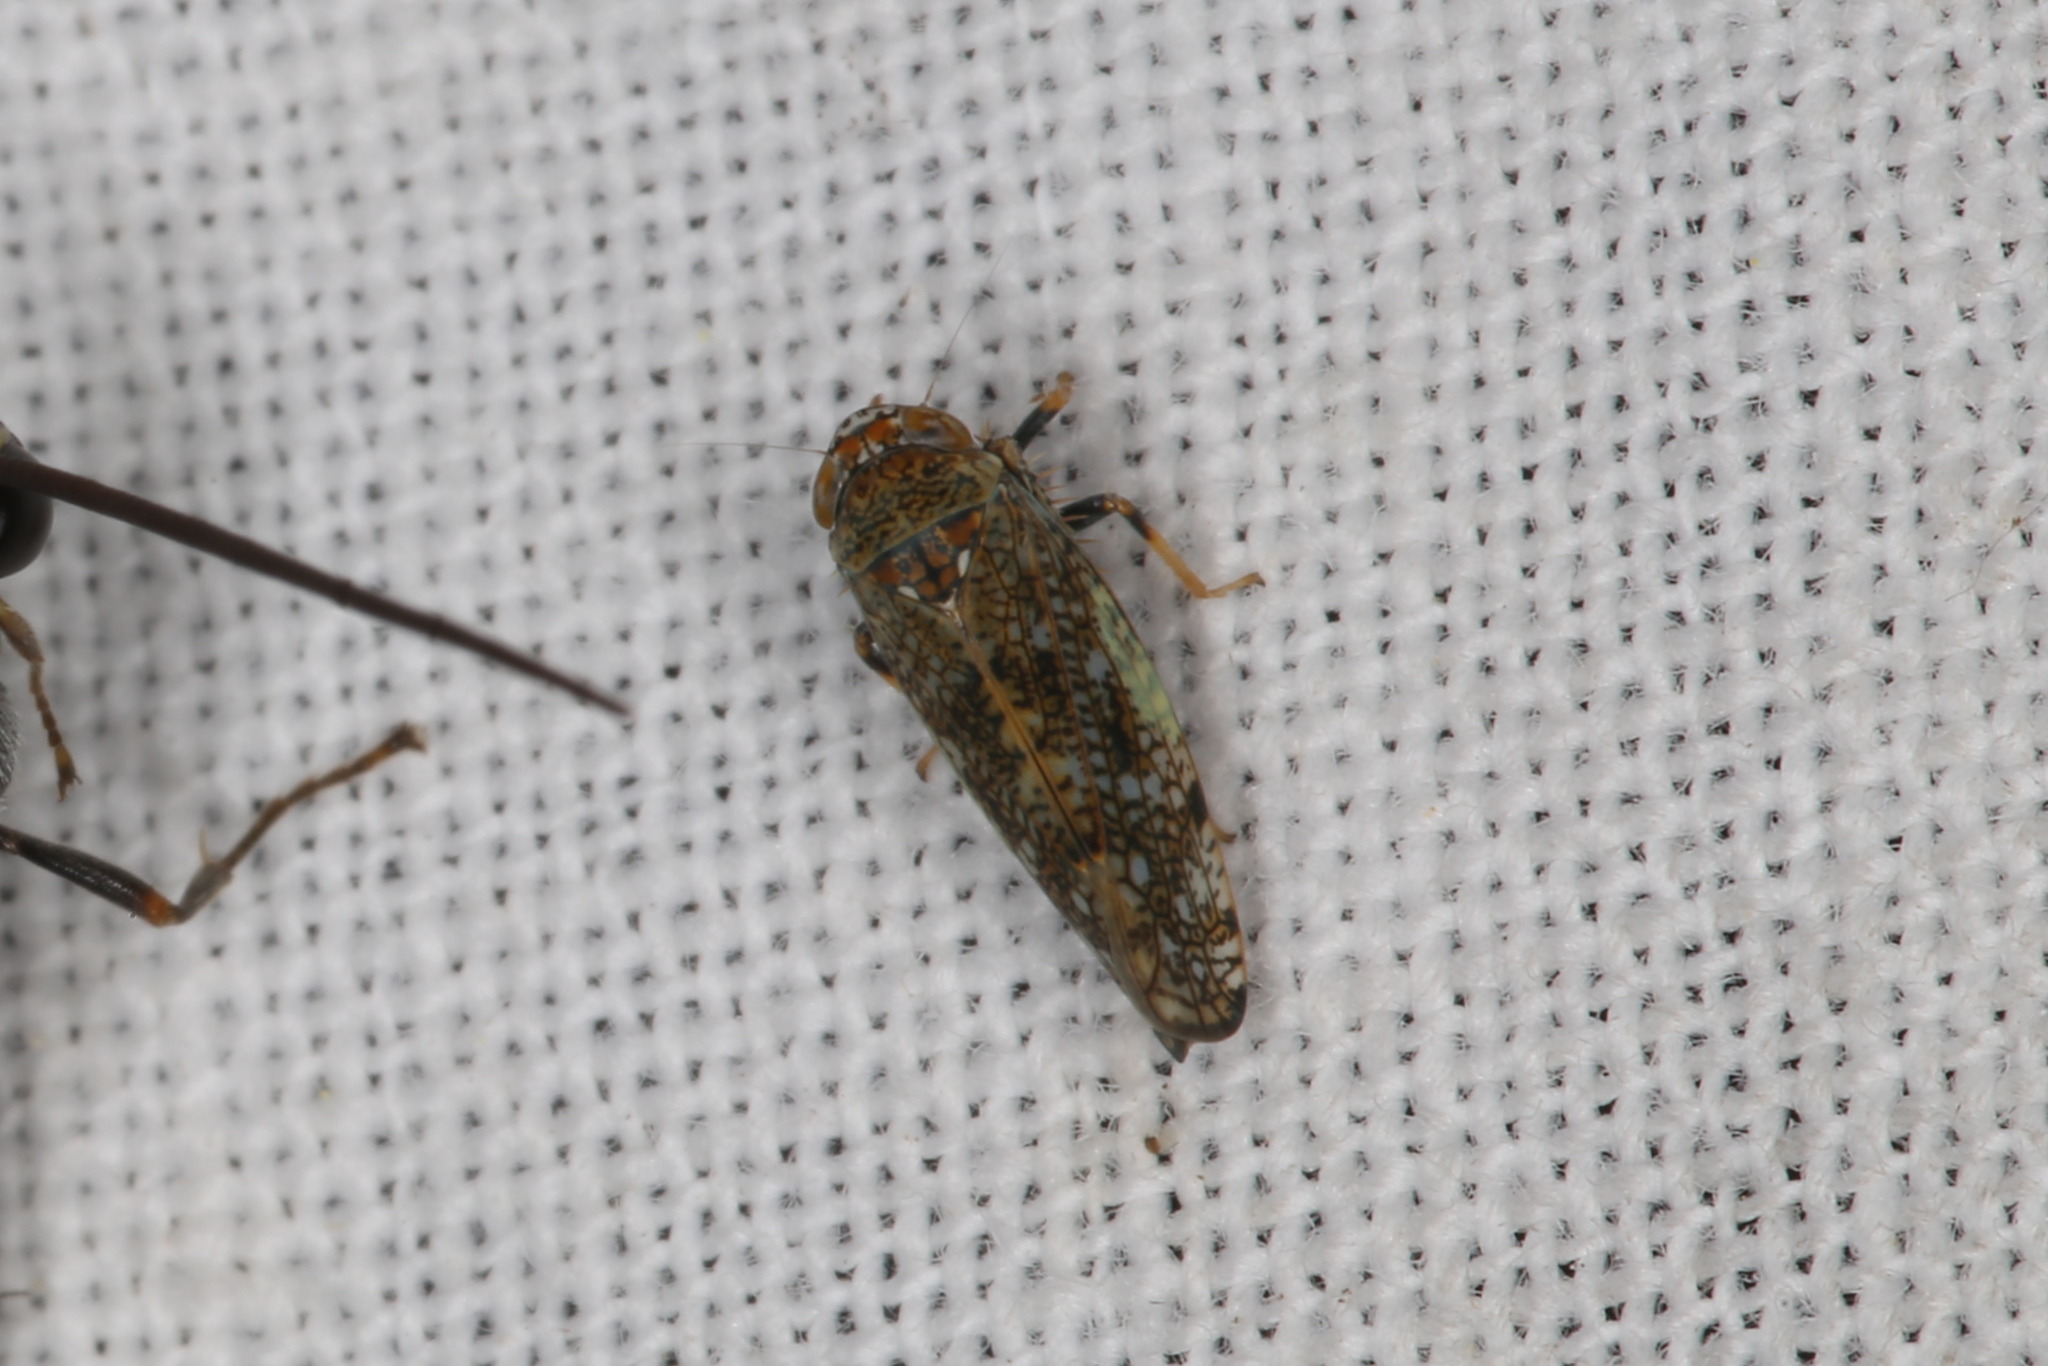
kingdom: Animalia
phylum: Arthropoda
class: Insecta
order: Hemiptera
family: Cicadellidae
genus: Orientus
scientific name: Orientus ishidae
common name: Japanese leafhopper
